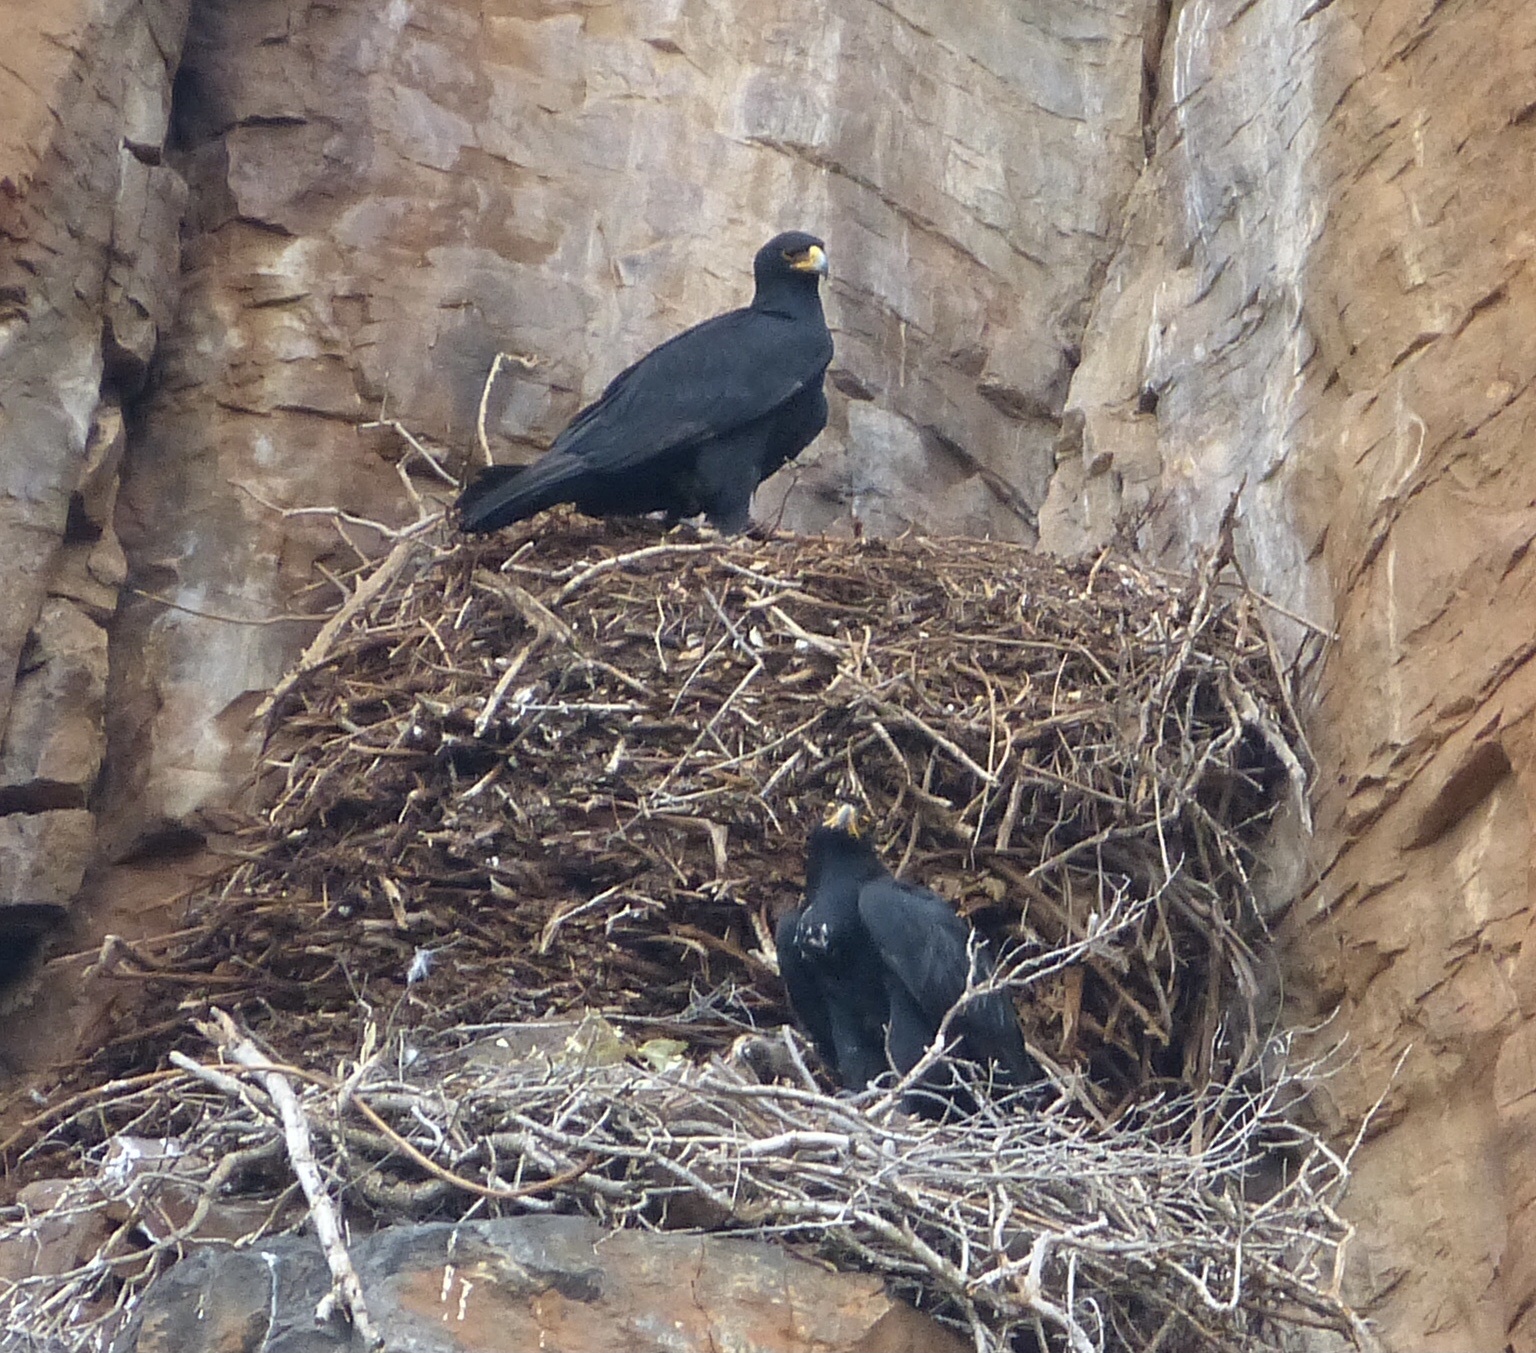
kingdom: Animalia
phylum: Chordata
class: Aves
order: Accipitriformes
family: Accipitridae
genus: Aquila
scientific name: Aquila verreauxii
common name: Verreaux's eagle
